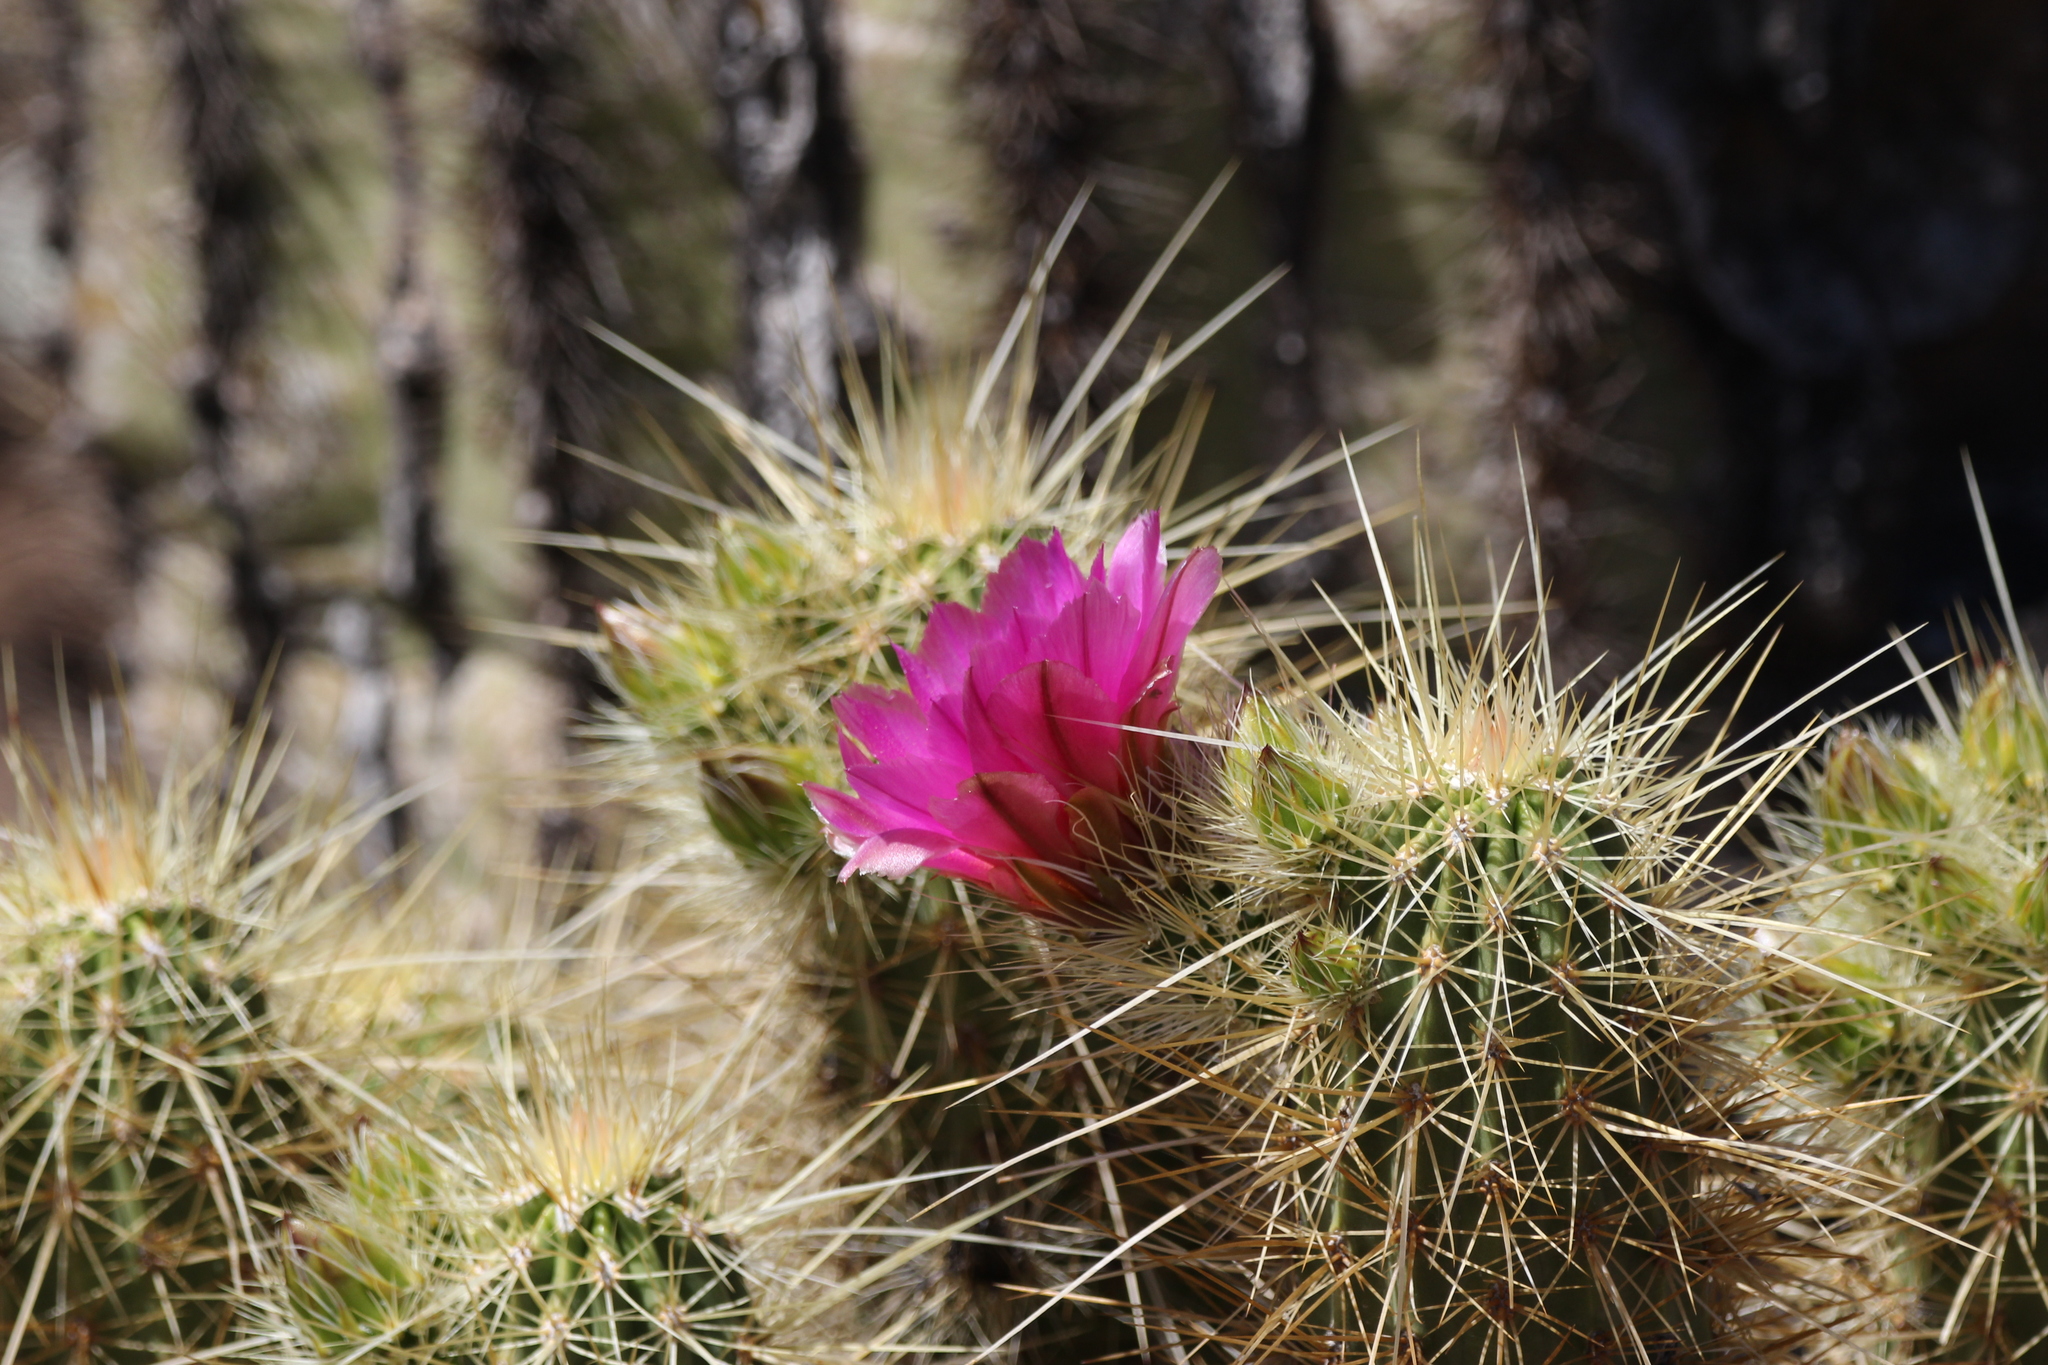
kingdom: Plantae
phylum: Tracheophyta
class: Magnoliopsida
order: Caryophyllales
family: Cactaceae
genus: Echinocereus
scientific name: Echinocereus nicholii
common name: Nichol's hedgehog cactus
